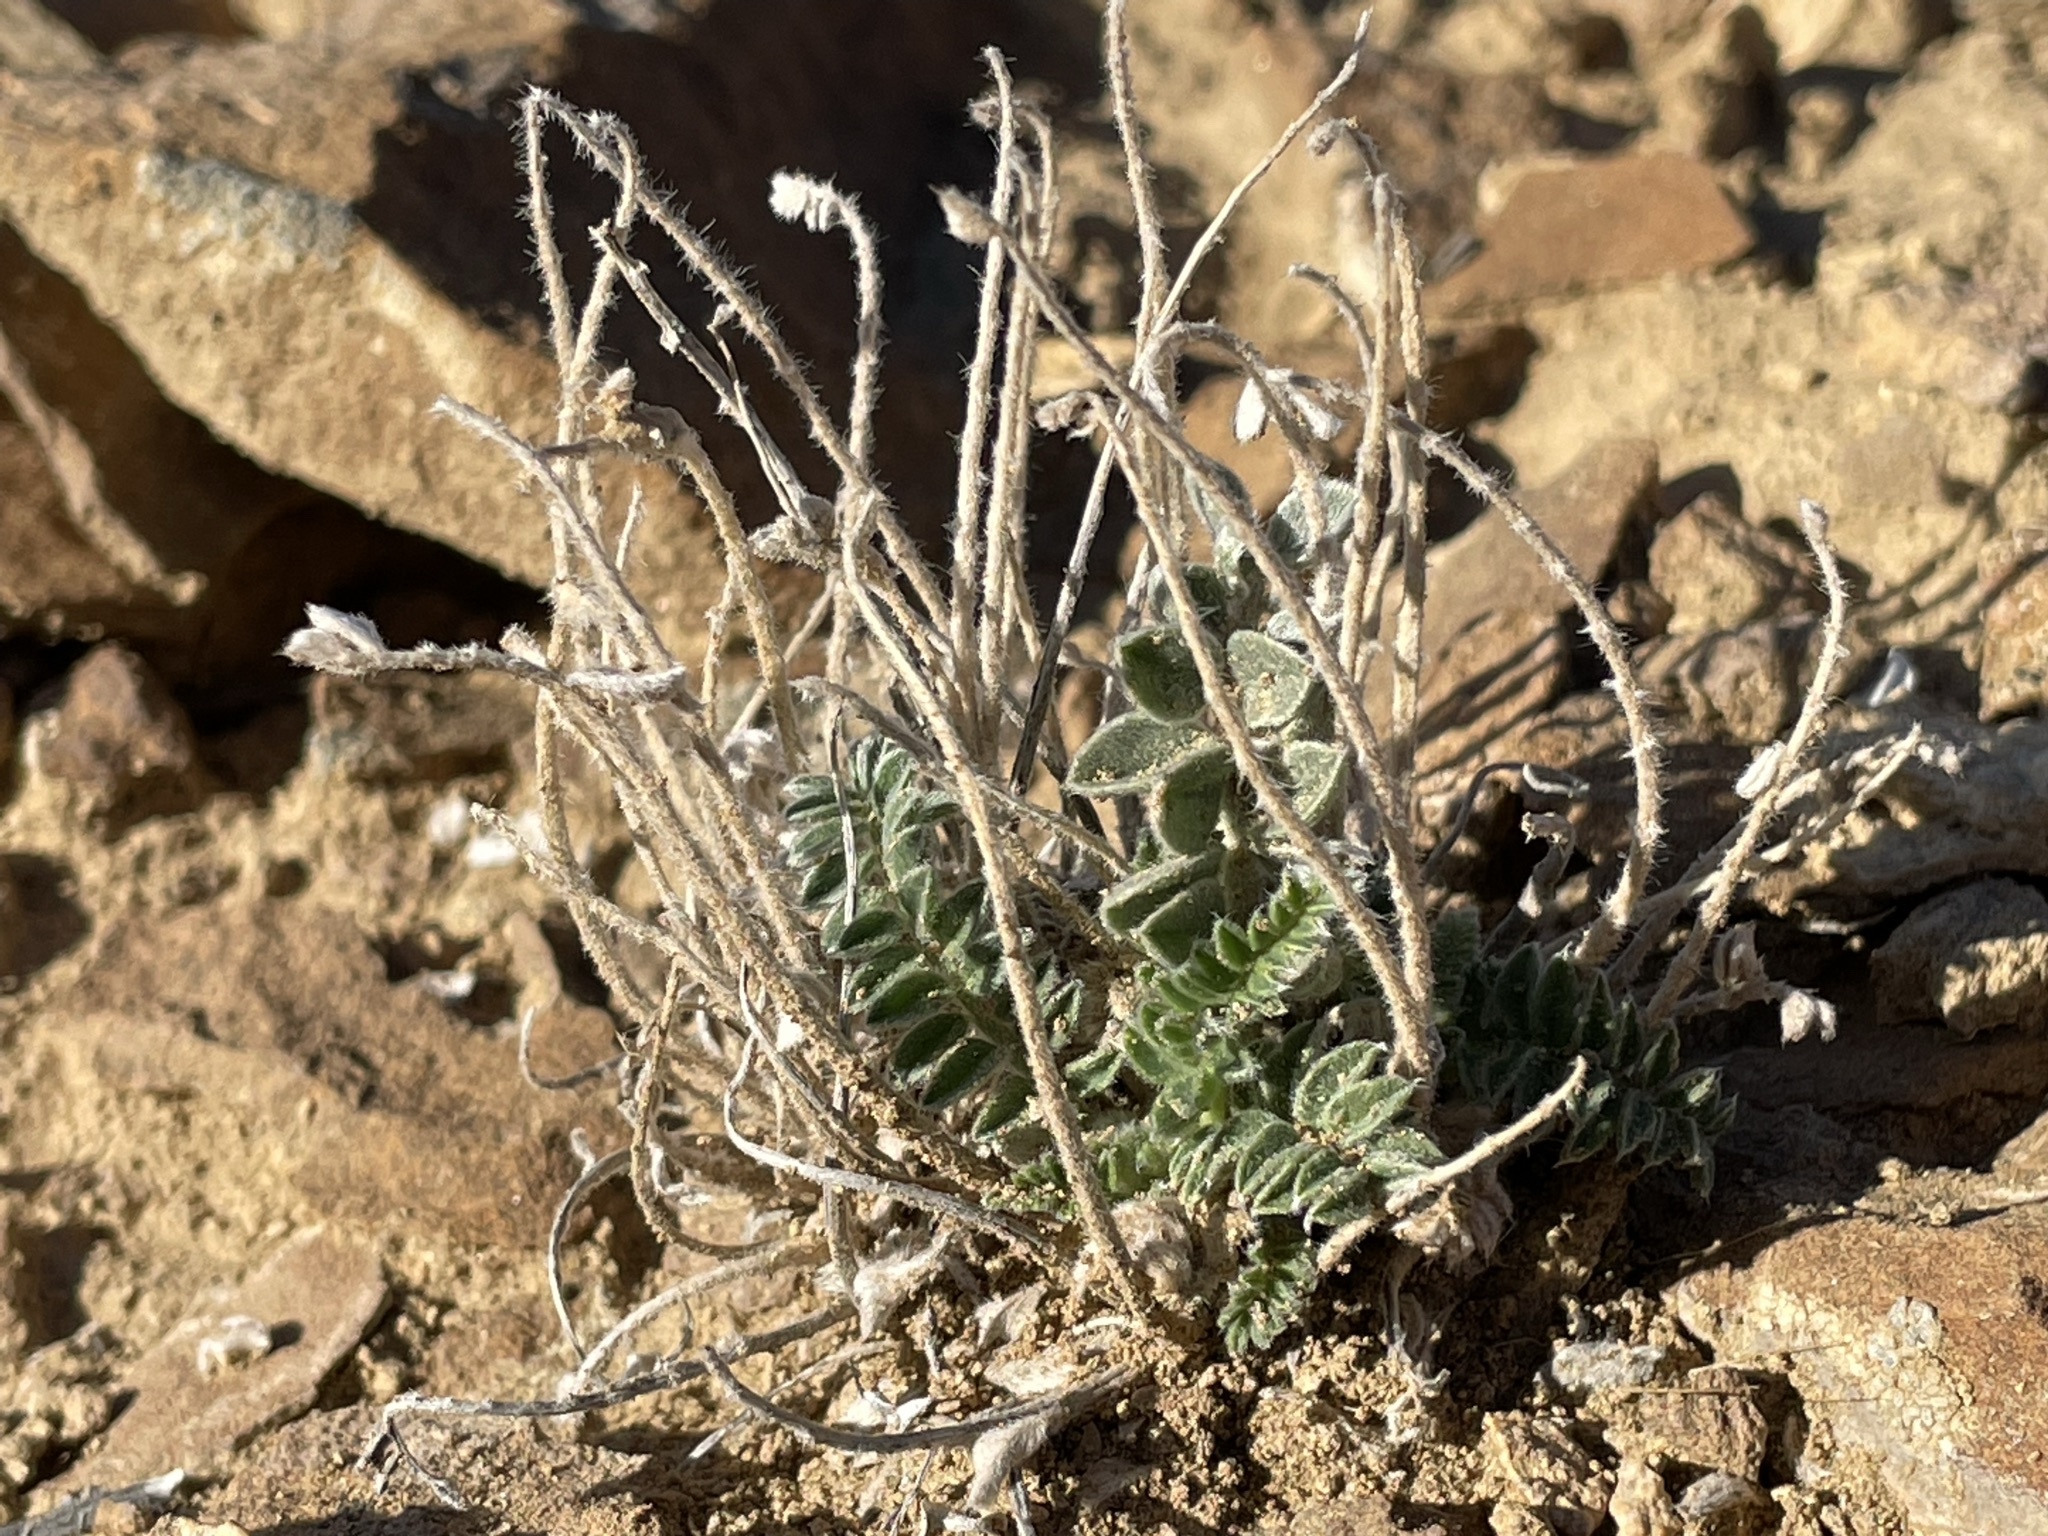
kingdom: Plantae
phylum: Tracheophyta
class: Magnoliopsida
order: Fabales
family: Fabaceae
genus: Astragalus
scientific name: Astragalus mollissimus
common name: Woolly locoweed
